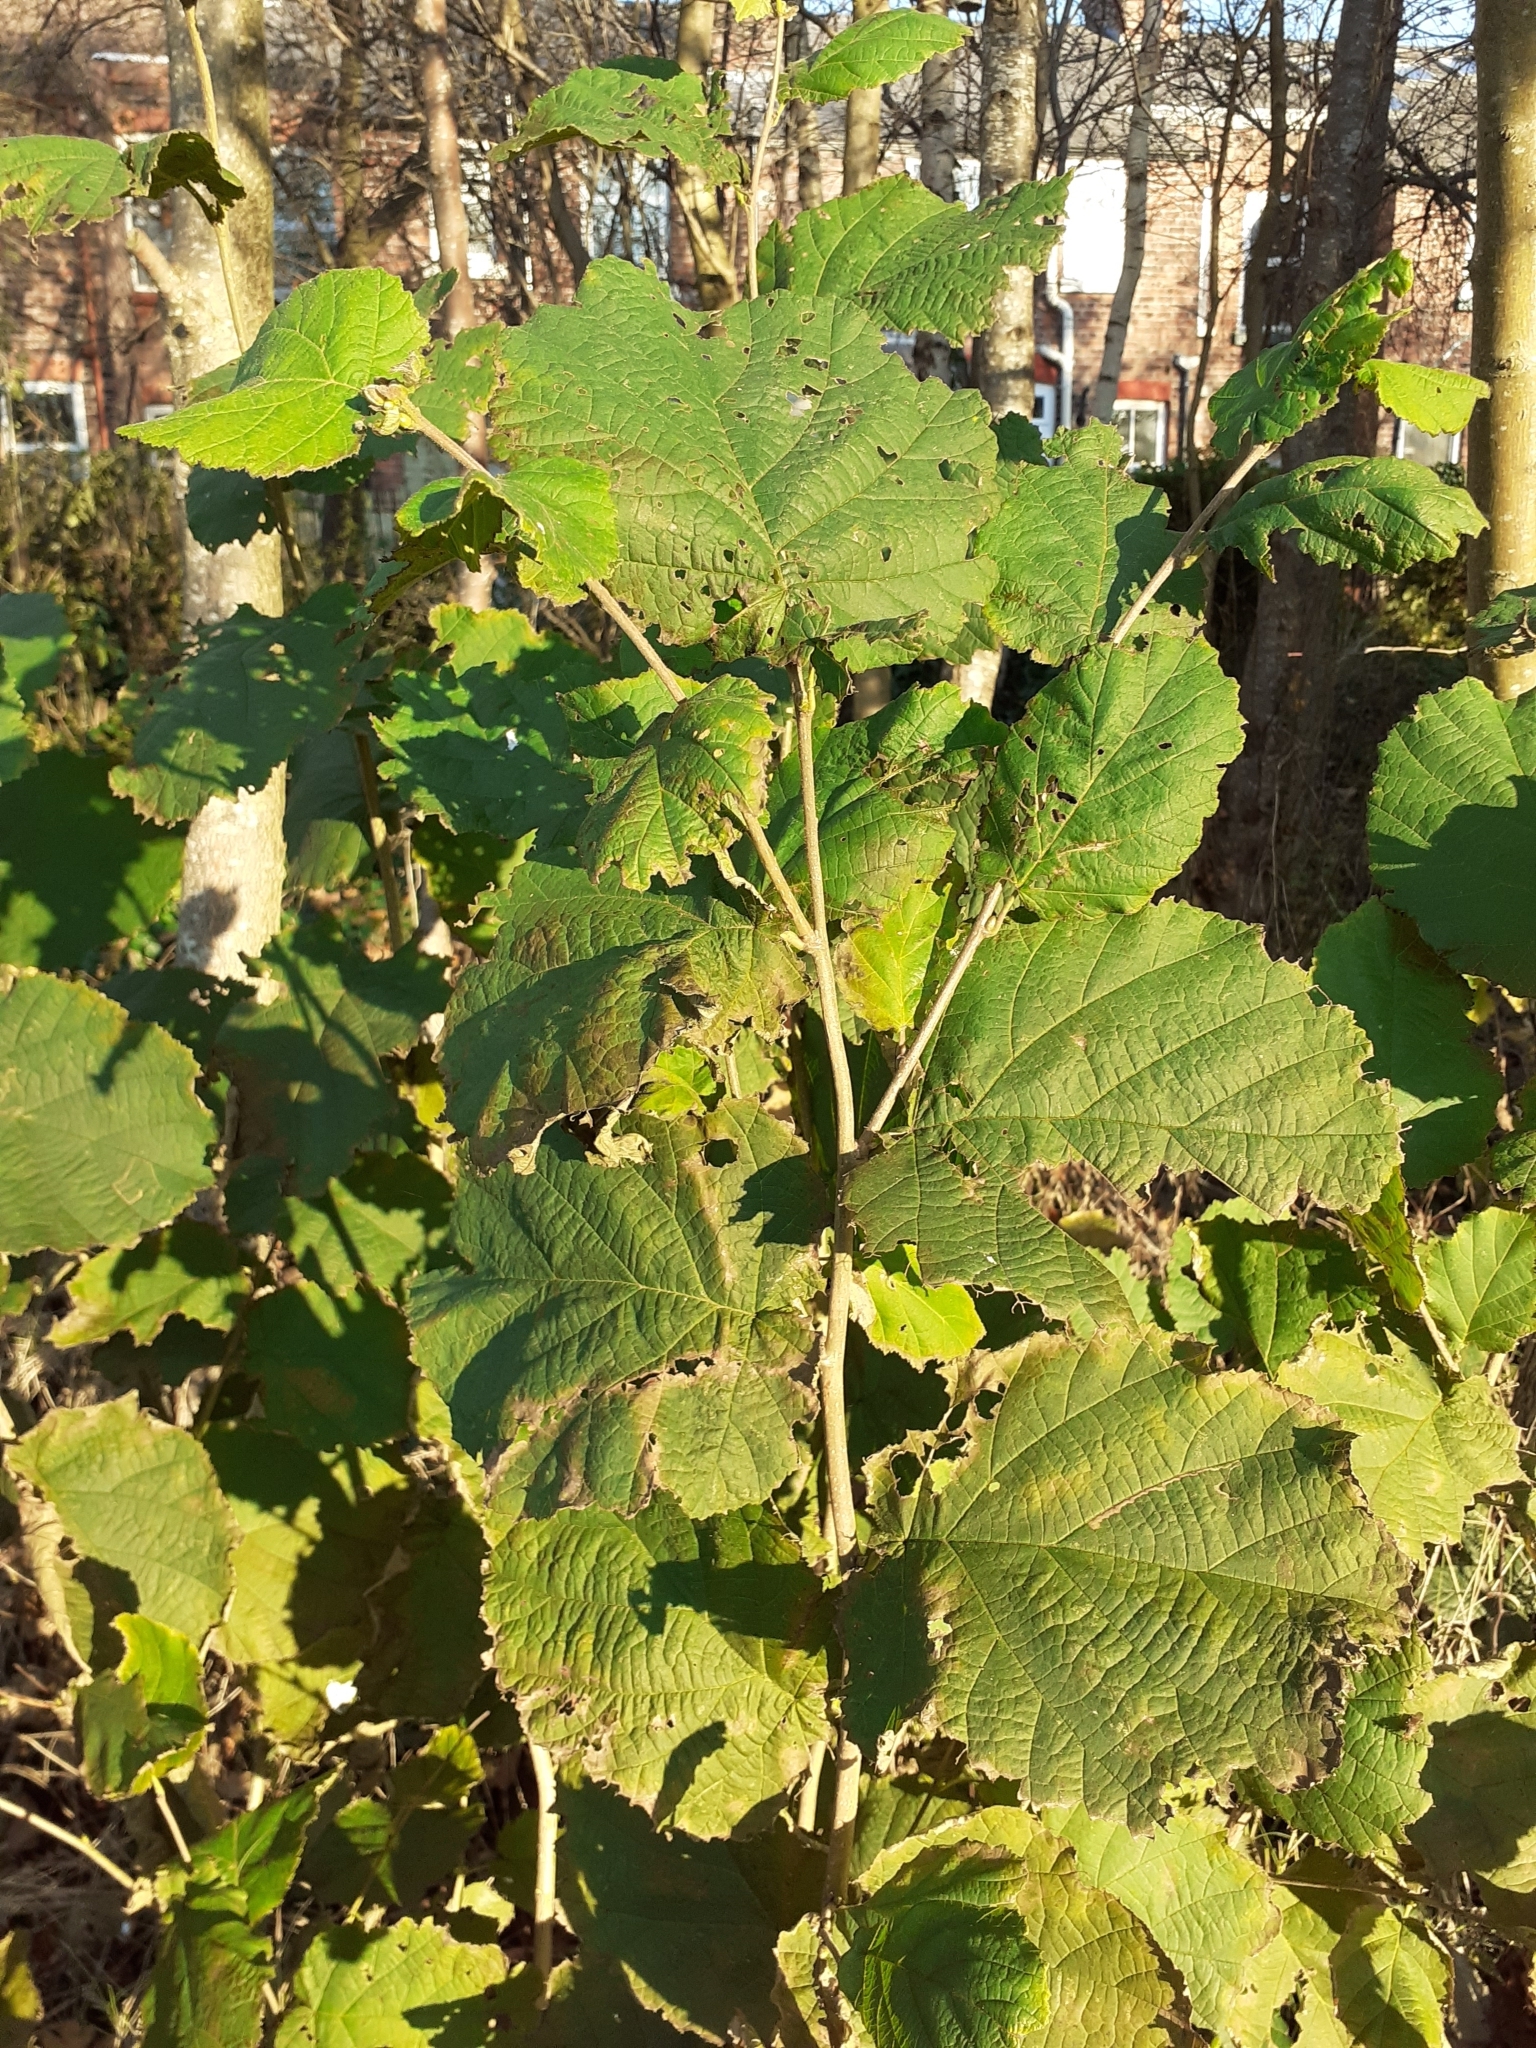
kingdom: Plantae
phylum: Tracheophyta
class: Magnoliopsida
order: Fagales
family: Betulaceae
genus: Corylus
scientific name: Corylus avellana
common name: European hazel
